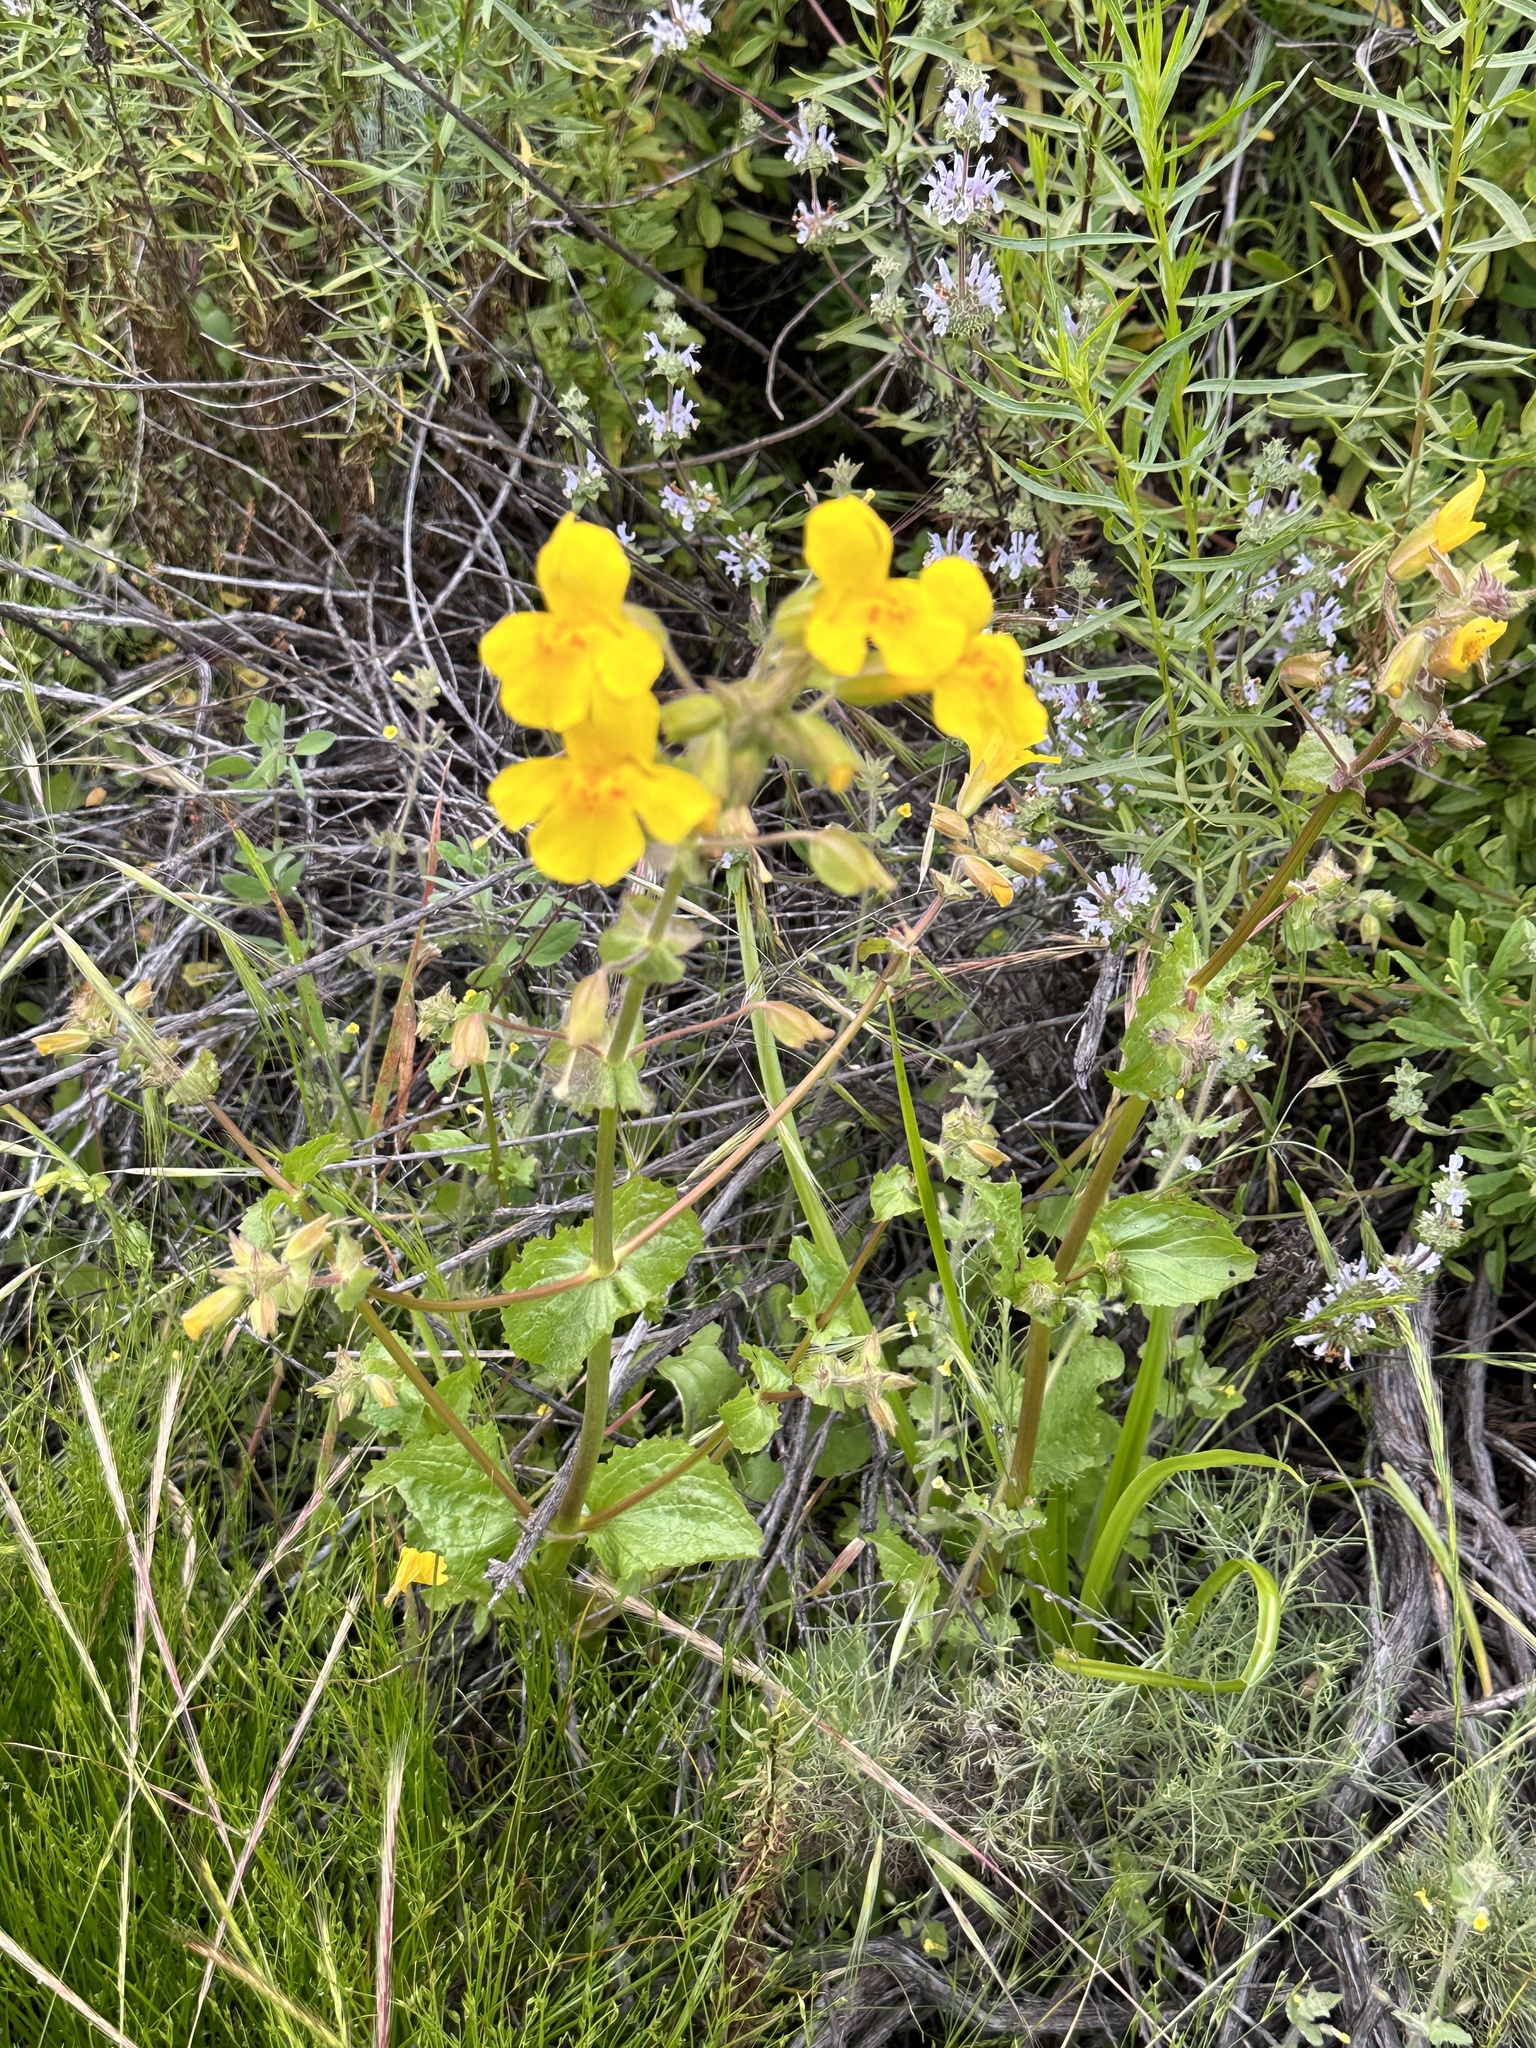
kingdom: Plantae
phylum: Tracheophyta
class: Magnoliopsida
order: Lamiales
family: Phrymaceae
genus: Erythranthe
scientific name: Erythranthe guttata
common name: Monkeyflower
